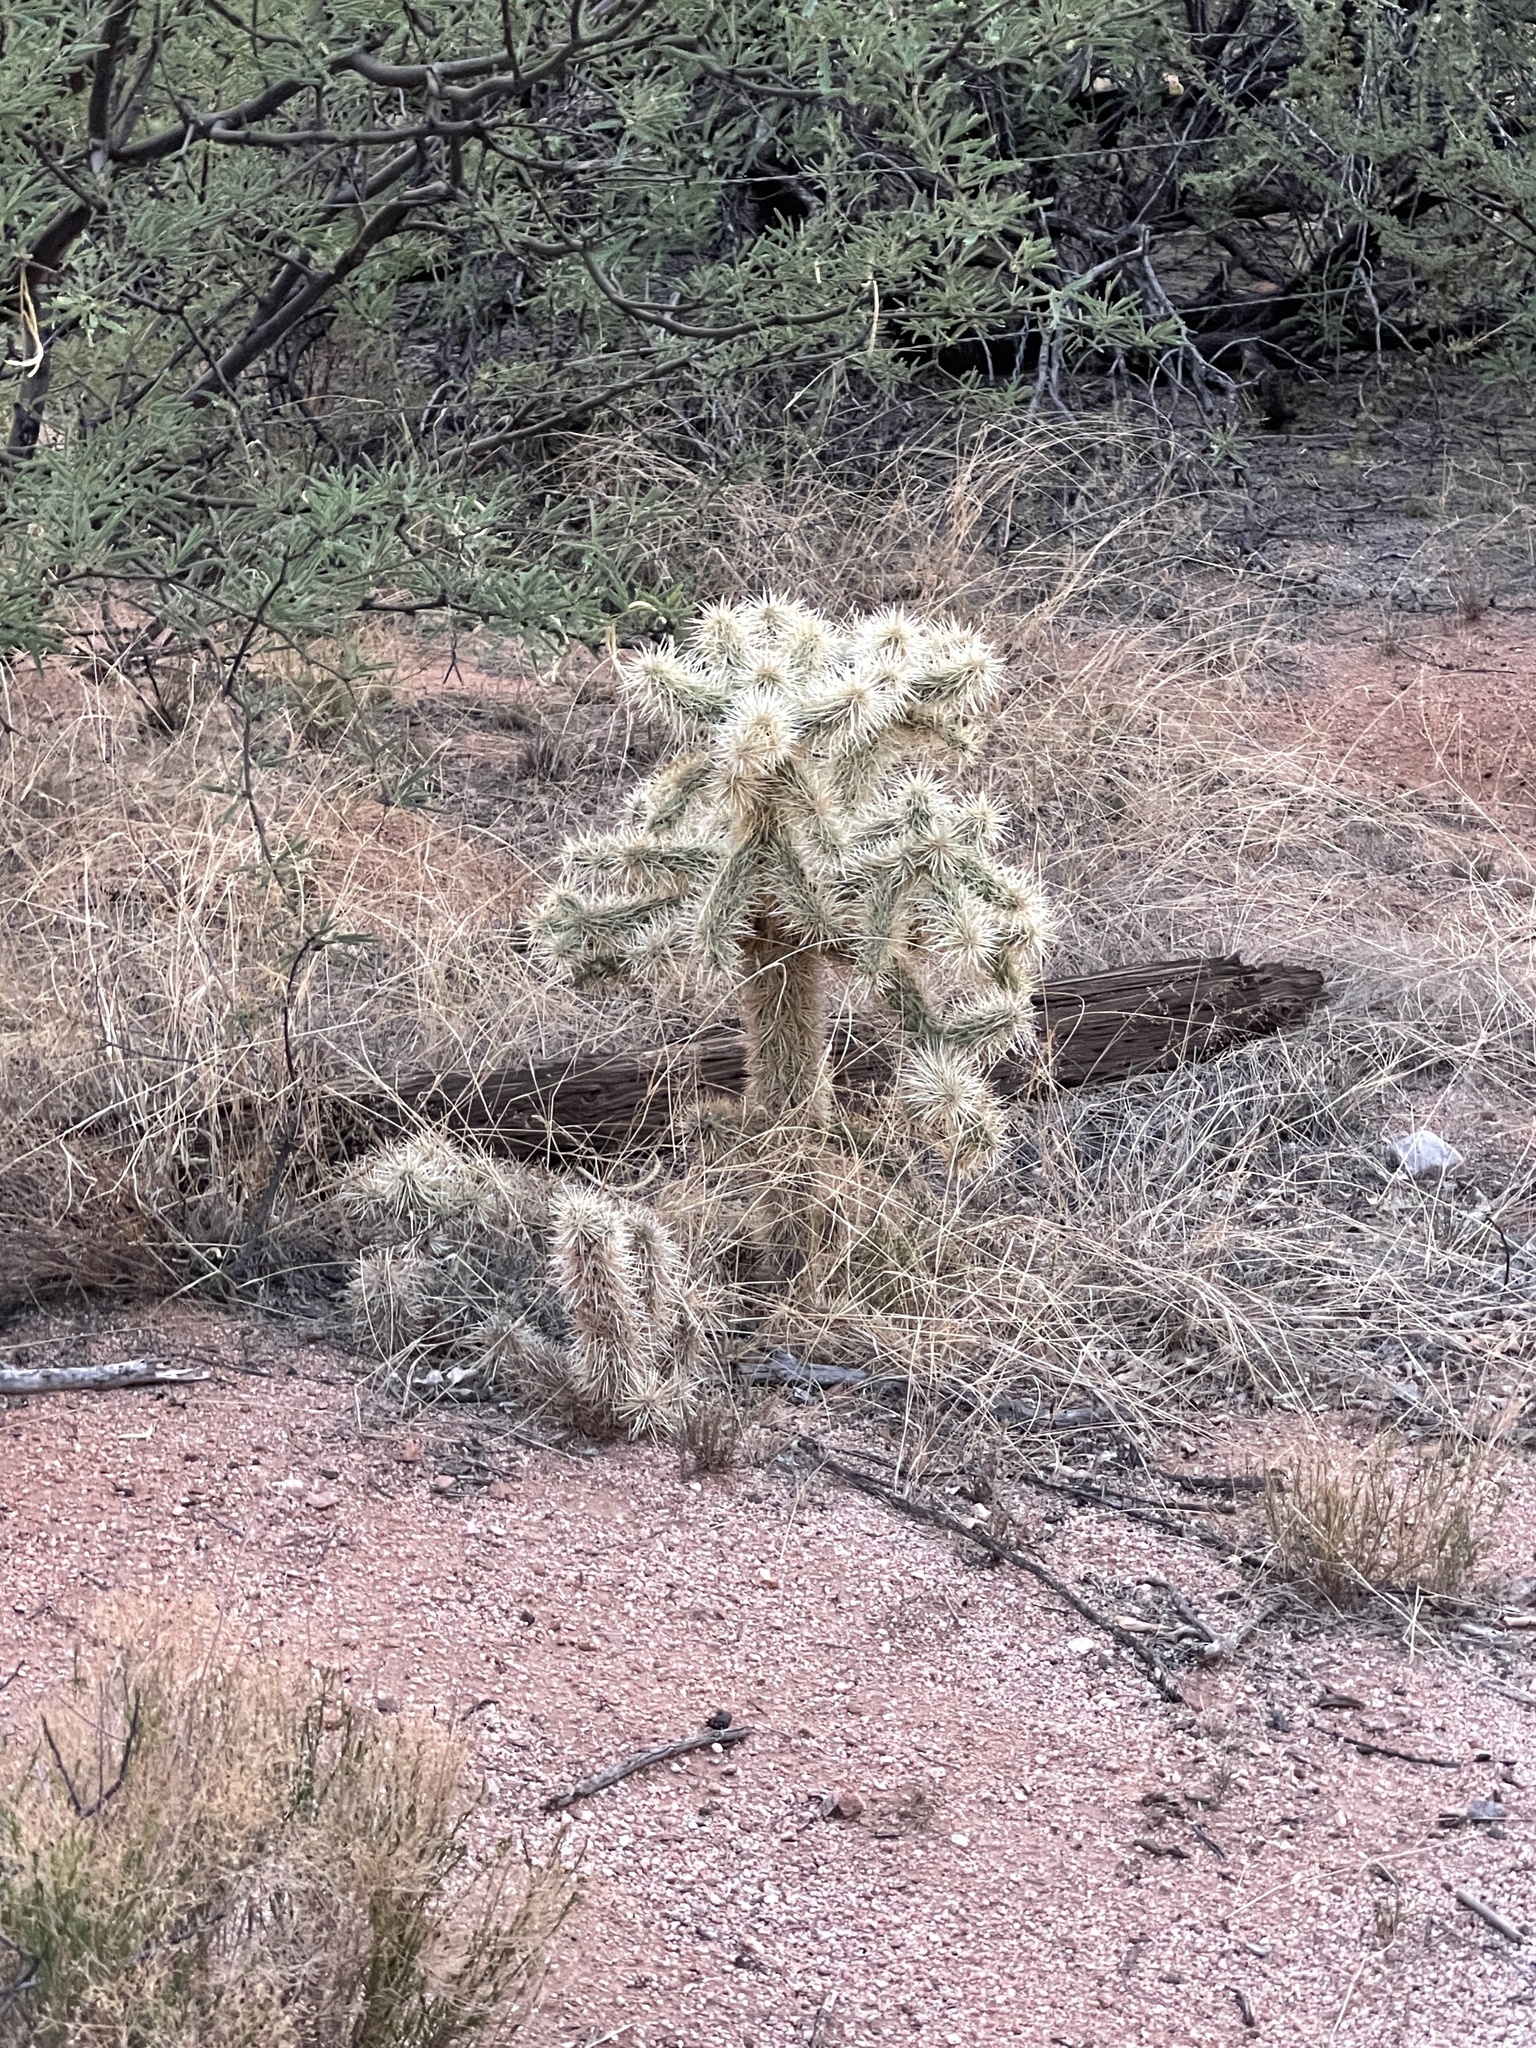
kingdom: Plantae
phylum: Tracheophyta
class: Magnoliopsida
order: Caryophyllales
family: Cactaceae
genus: Cylindropuntia
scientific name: Cylindropuntia fulgida
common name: Jumping cholla
